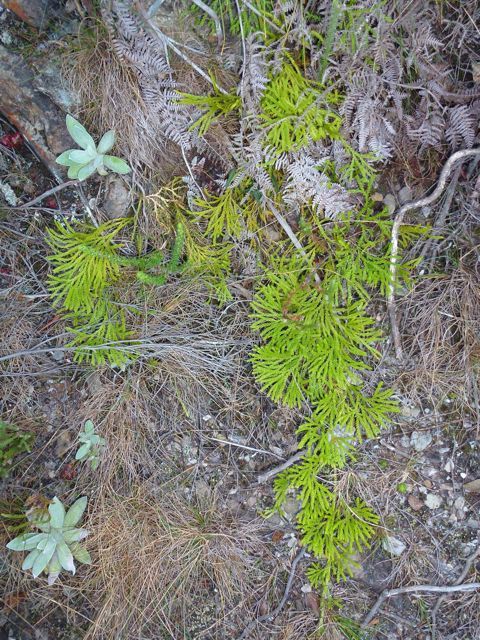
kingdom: Plantae
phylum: Tracheophyta
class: Lycopodiopsida
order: Lycopodiales
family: Lycopodiaceae
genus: Diphasiastrum
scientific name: Diphasiastrum zanclophyllum
